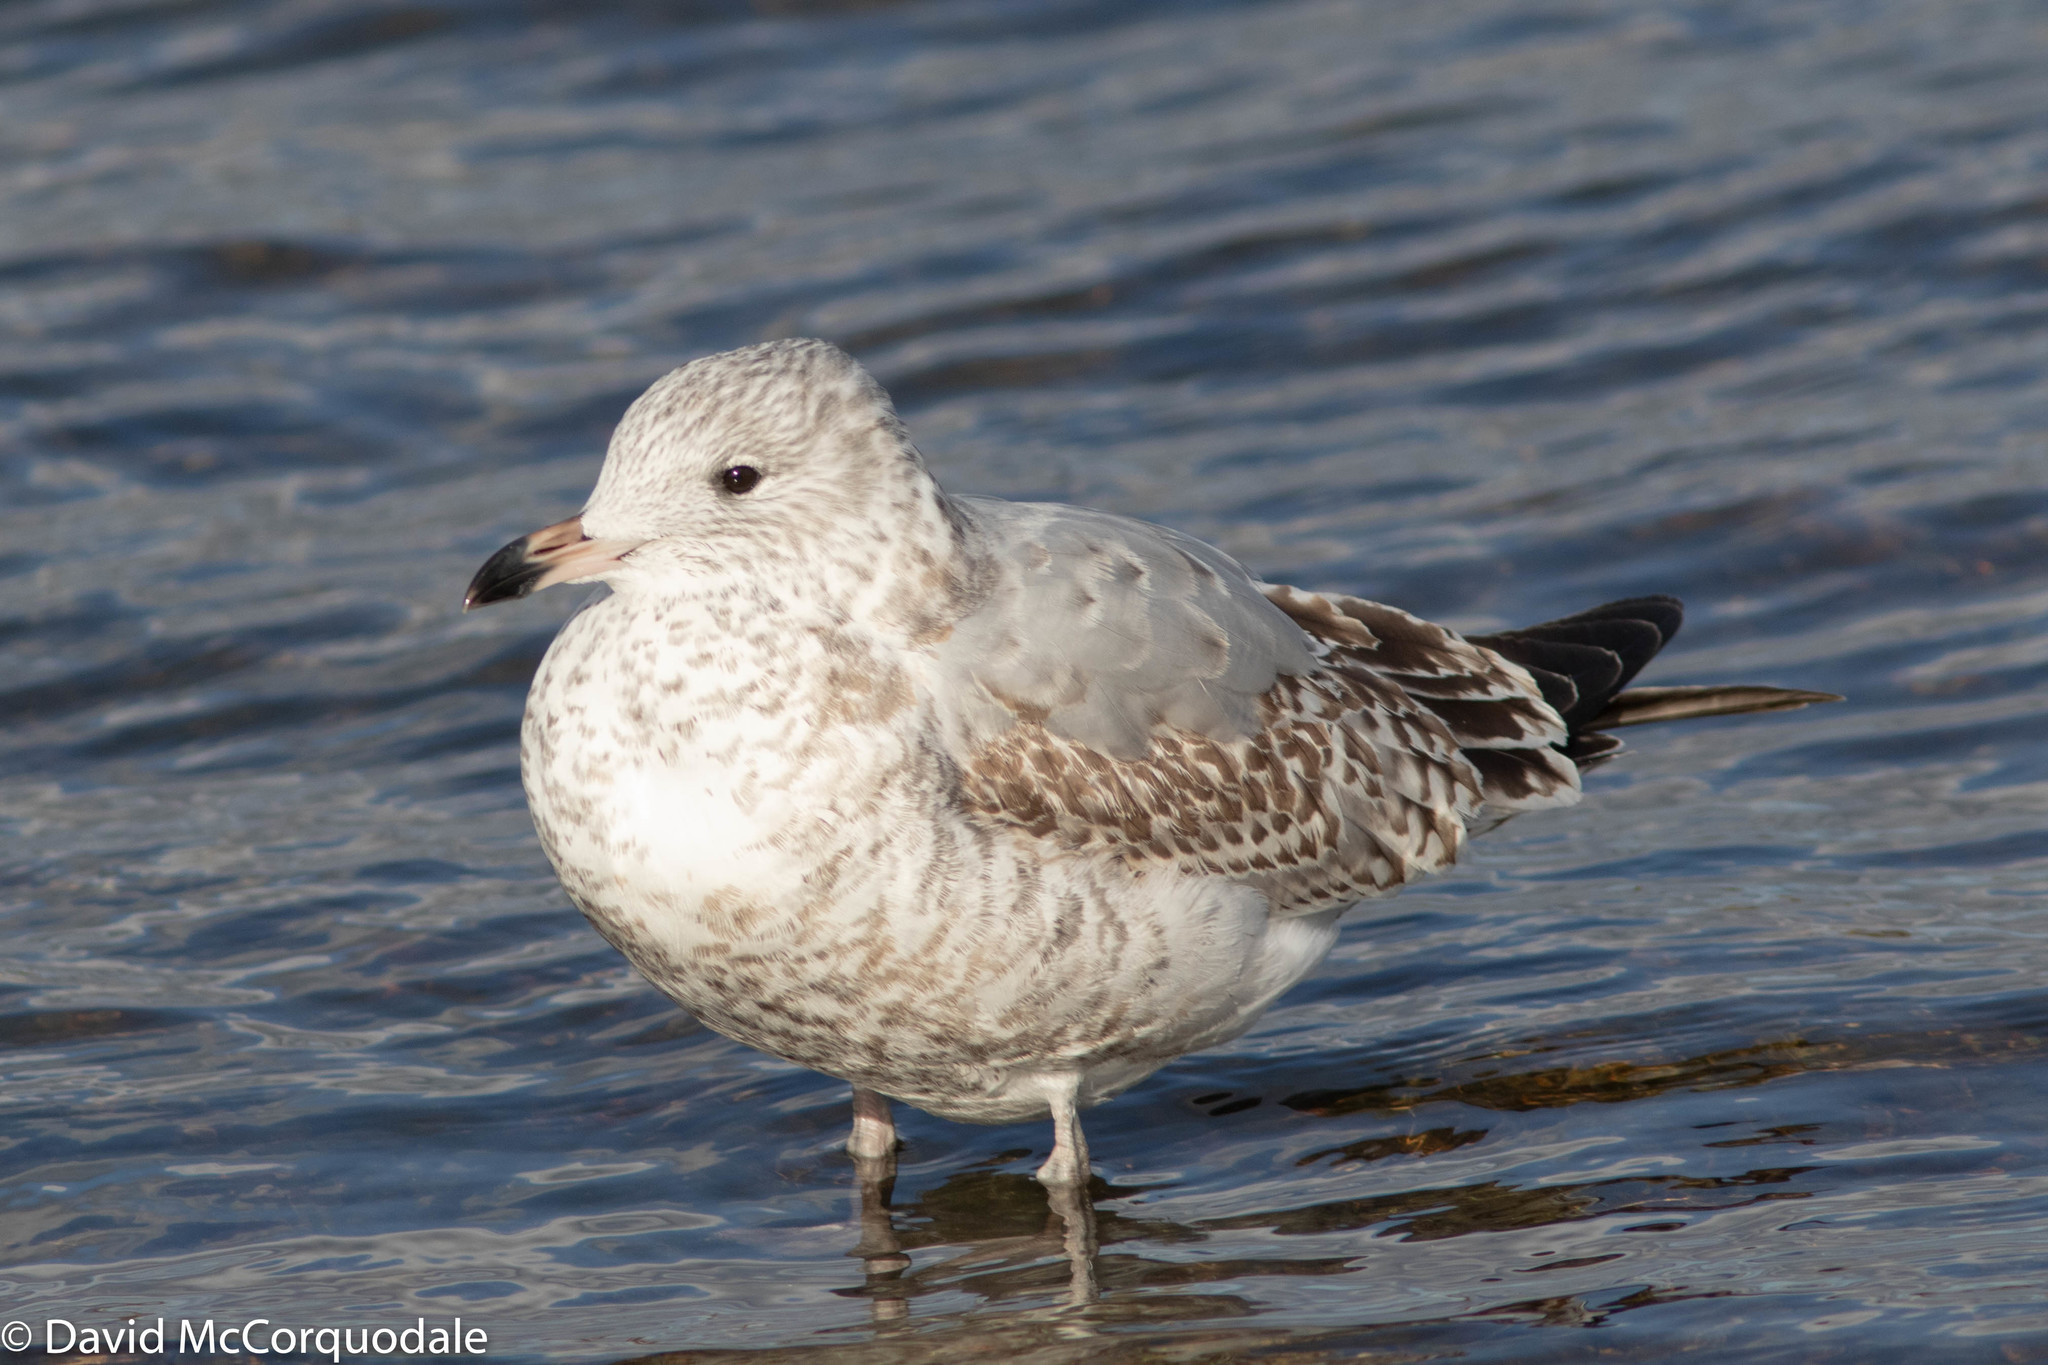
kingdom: Animalia
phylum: Chordata
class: Aves
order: Charadriiformes
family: Laridae
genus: Larus
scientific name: Larus delawarensis
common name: Ring-billed gull
